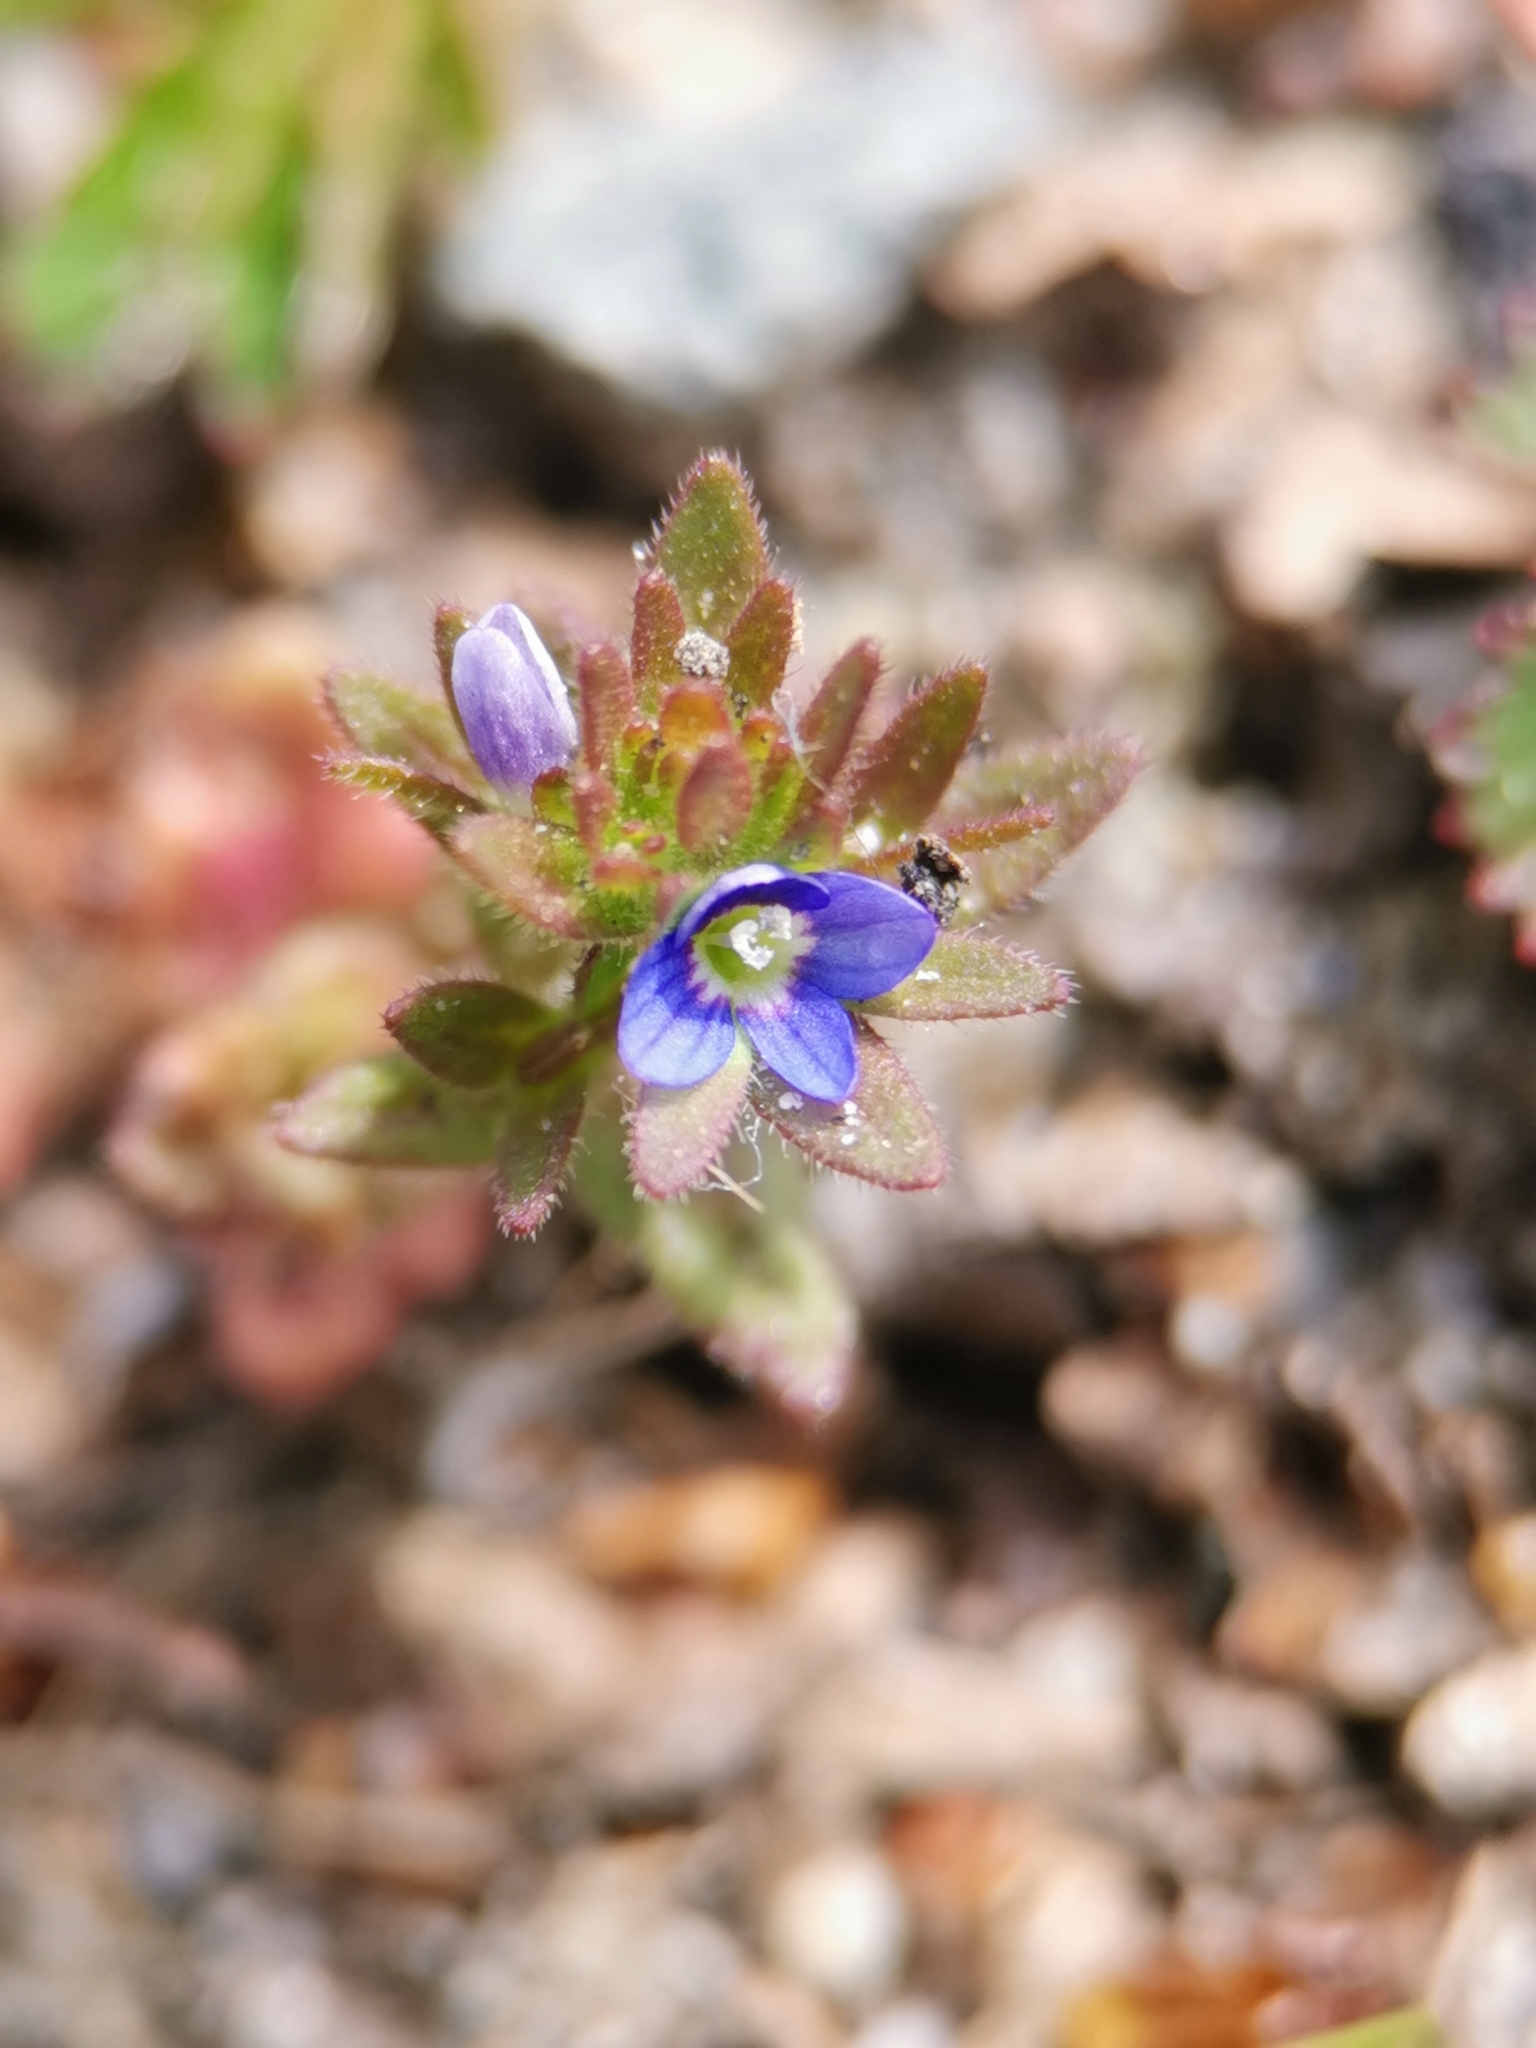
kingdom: Plantae
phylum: Tracheophyta
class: Magnoliopsida
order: Lamiales
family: Plantaginaceae
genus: Veronica
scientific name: Veronica arvensis
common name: Corn speedwell
